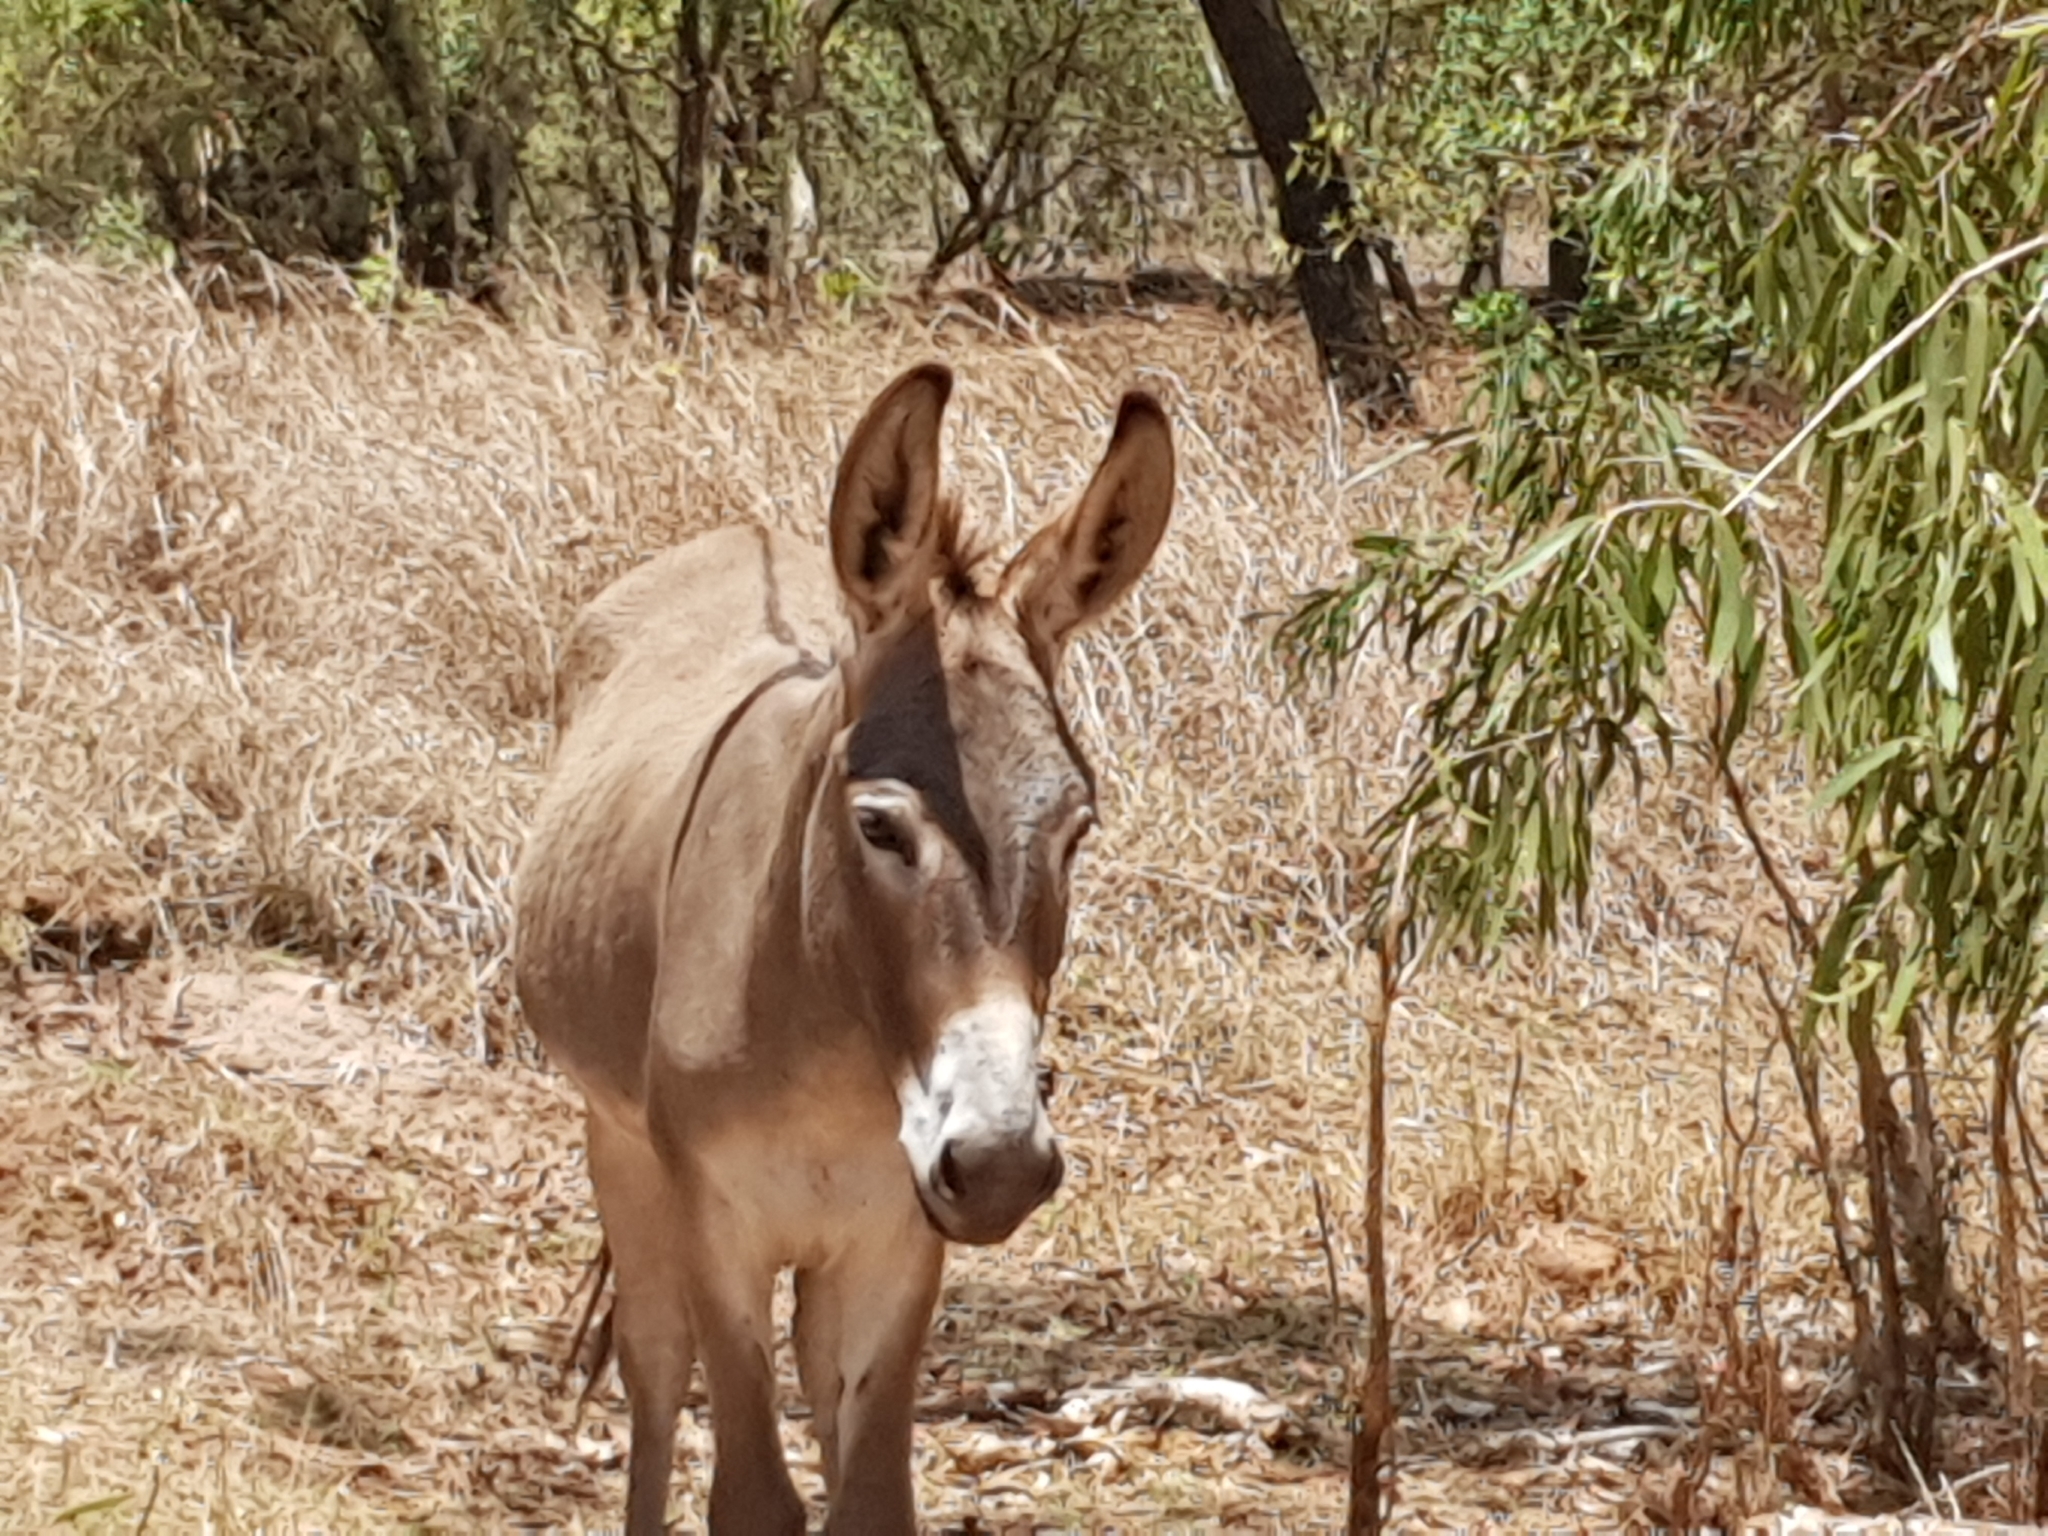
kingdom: Animalia
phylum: Chordata
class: Mammalia
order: Perissodactyla
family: Equidae
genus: Equus
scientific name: Equus asinus
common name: Ass
